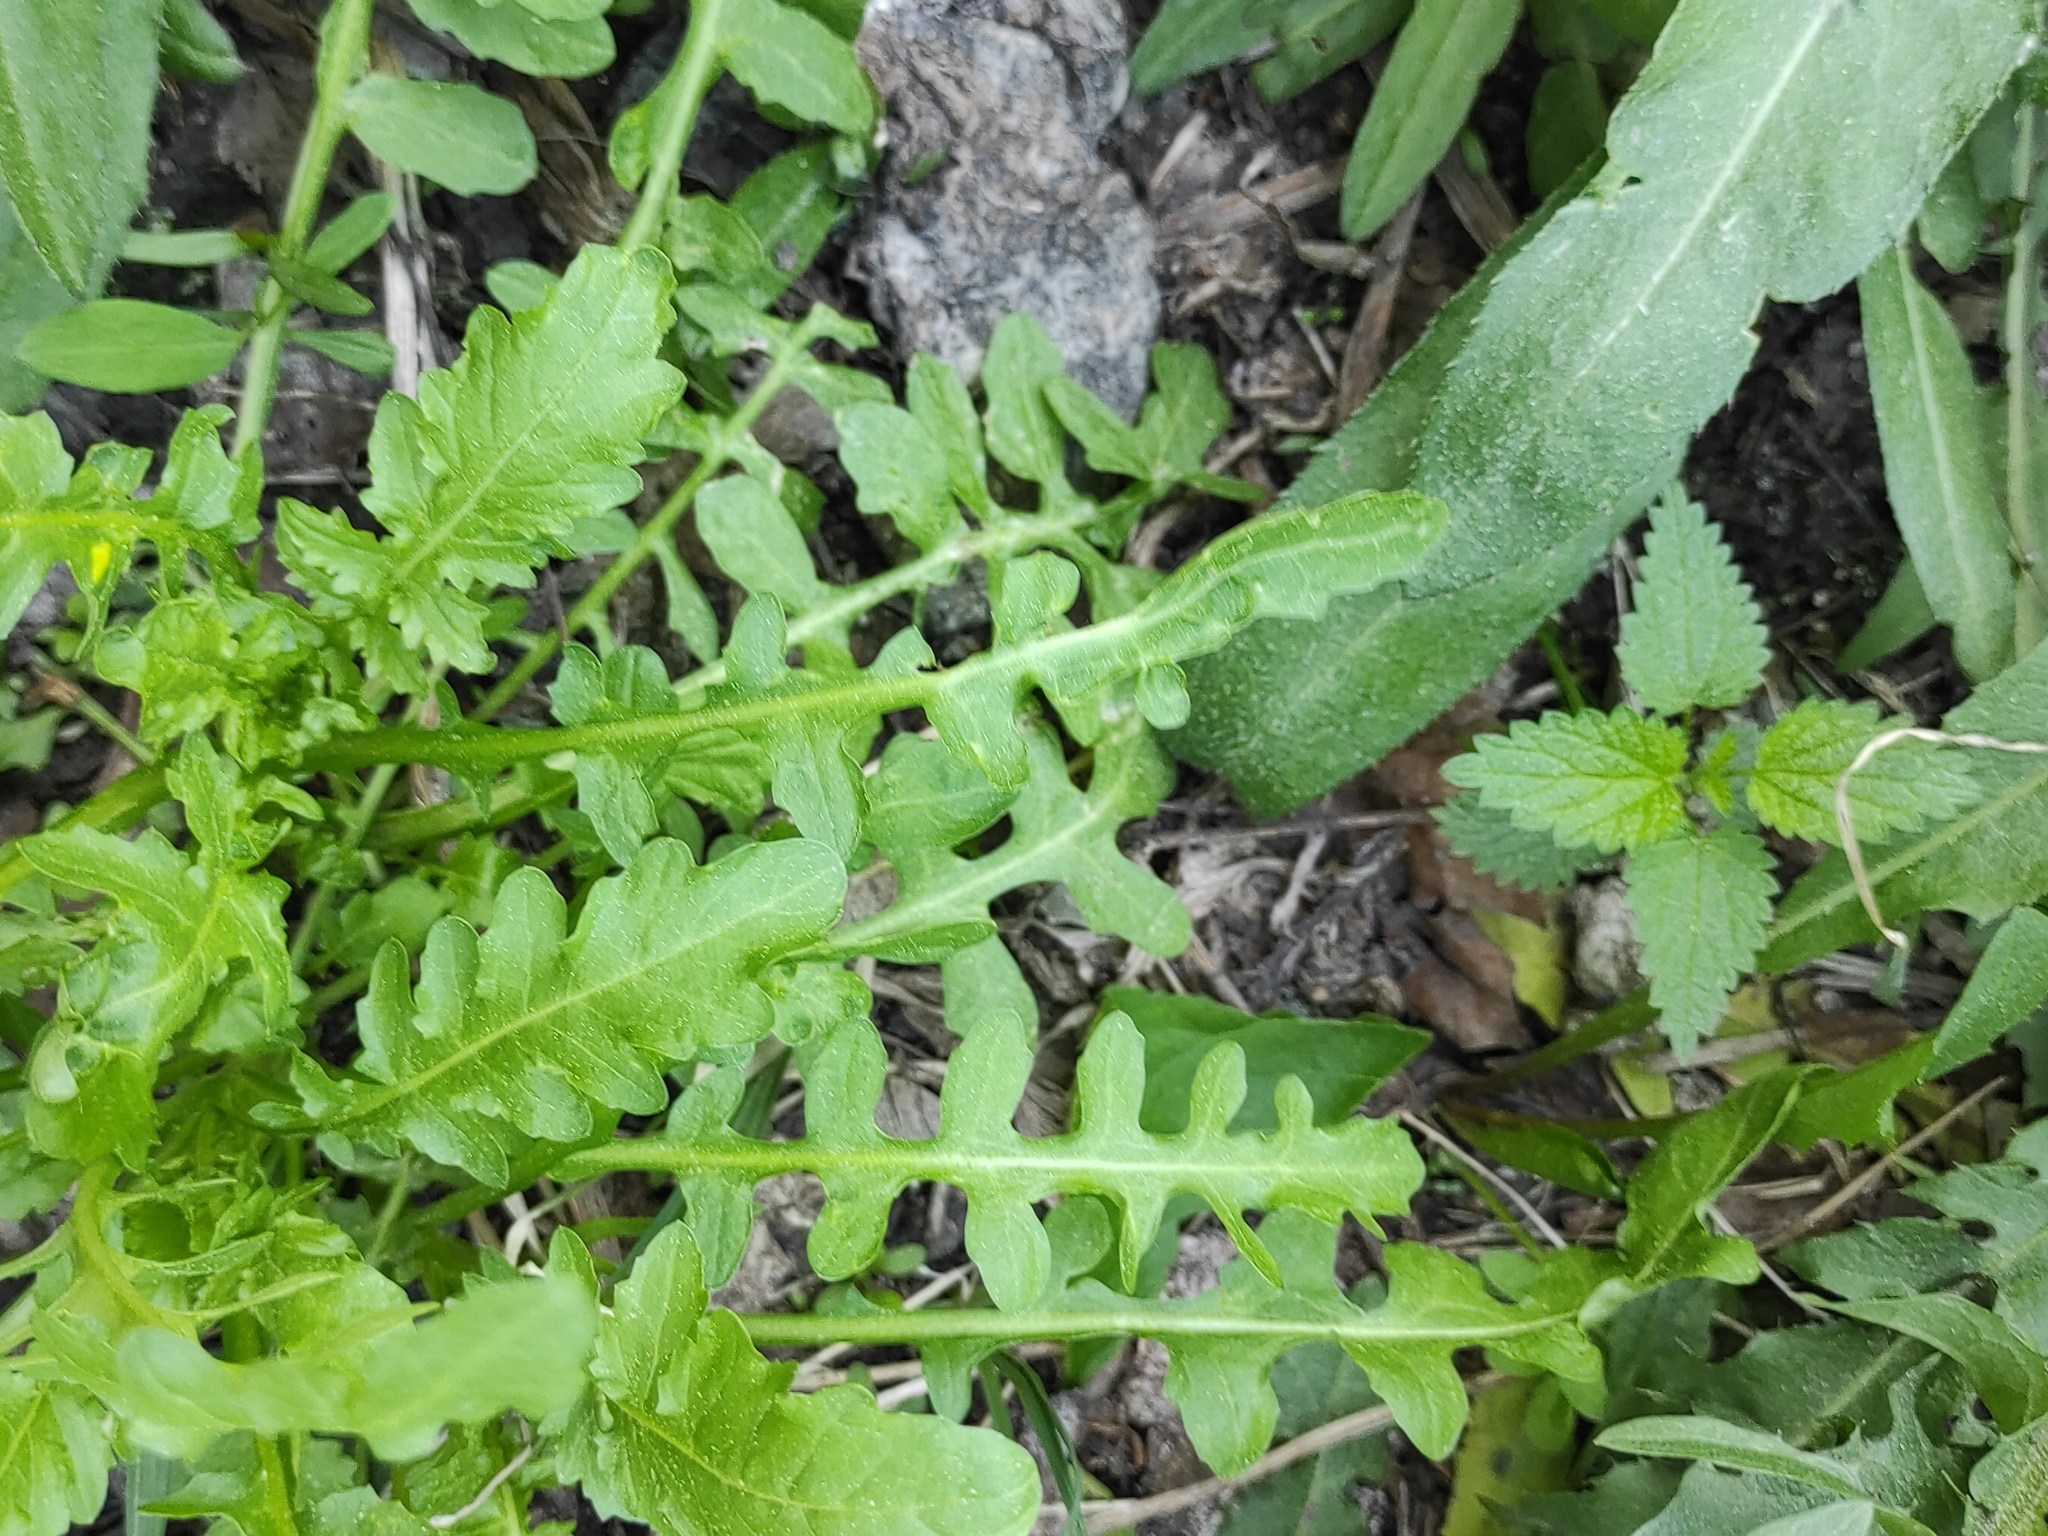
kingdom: Plantae
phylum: Tracheophyta
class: Magnoliopsida
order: Brassicales
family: Brassicaceae
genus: Rorippa
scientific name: Rorippa palustris
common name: Marsh yellow-cress
